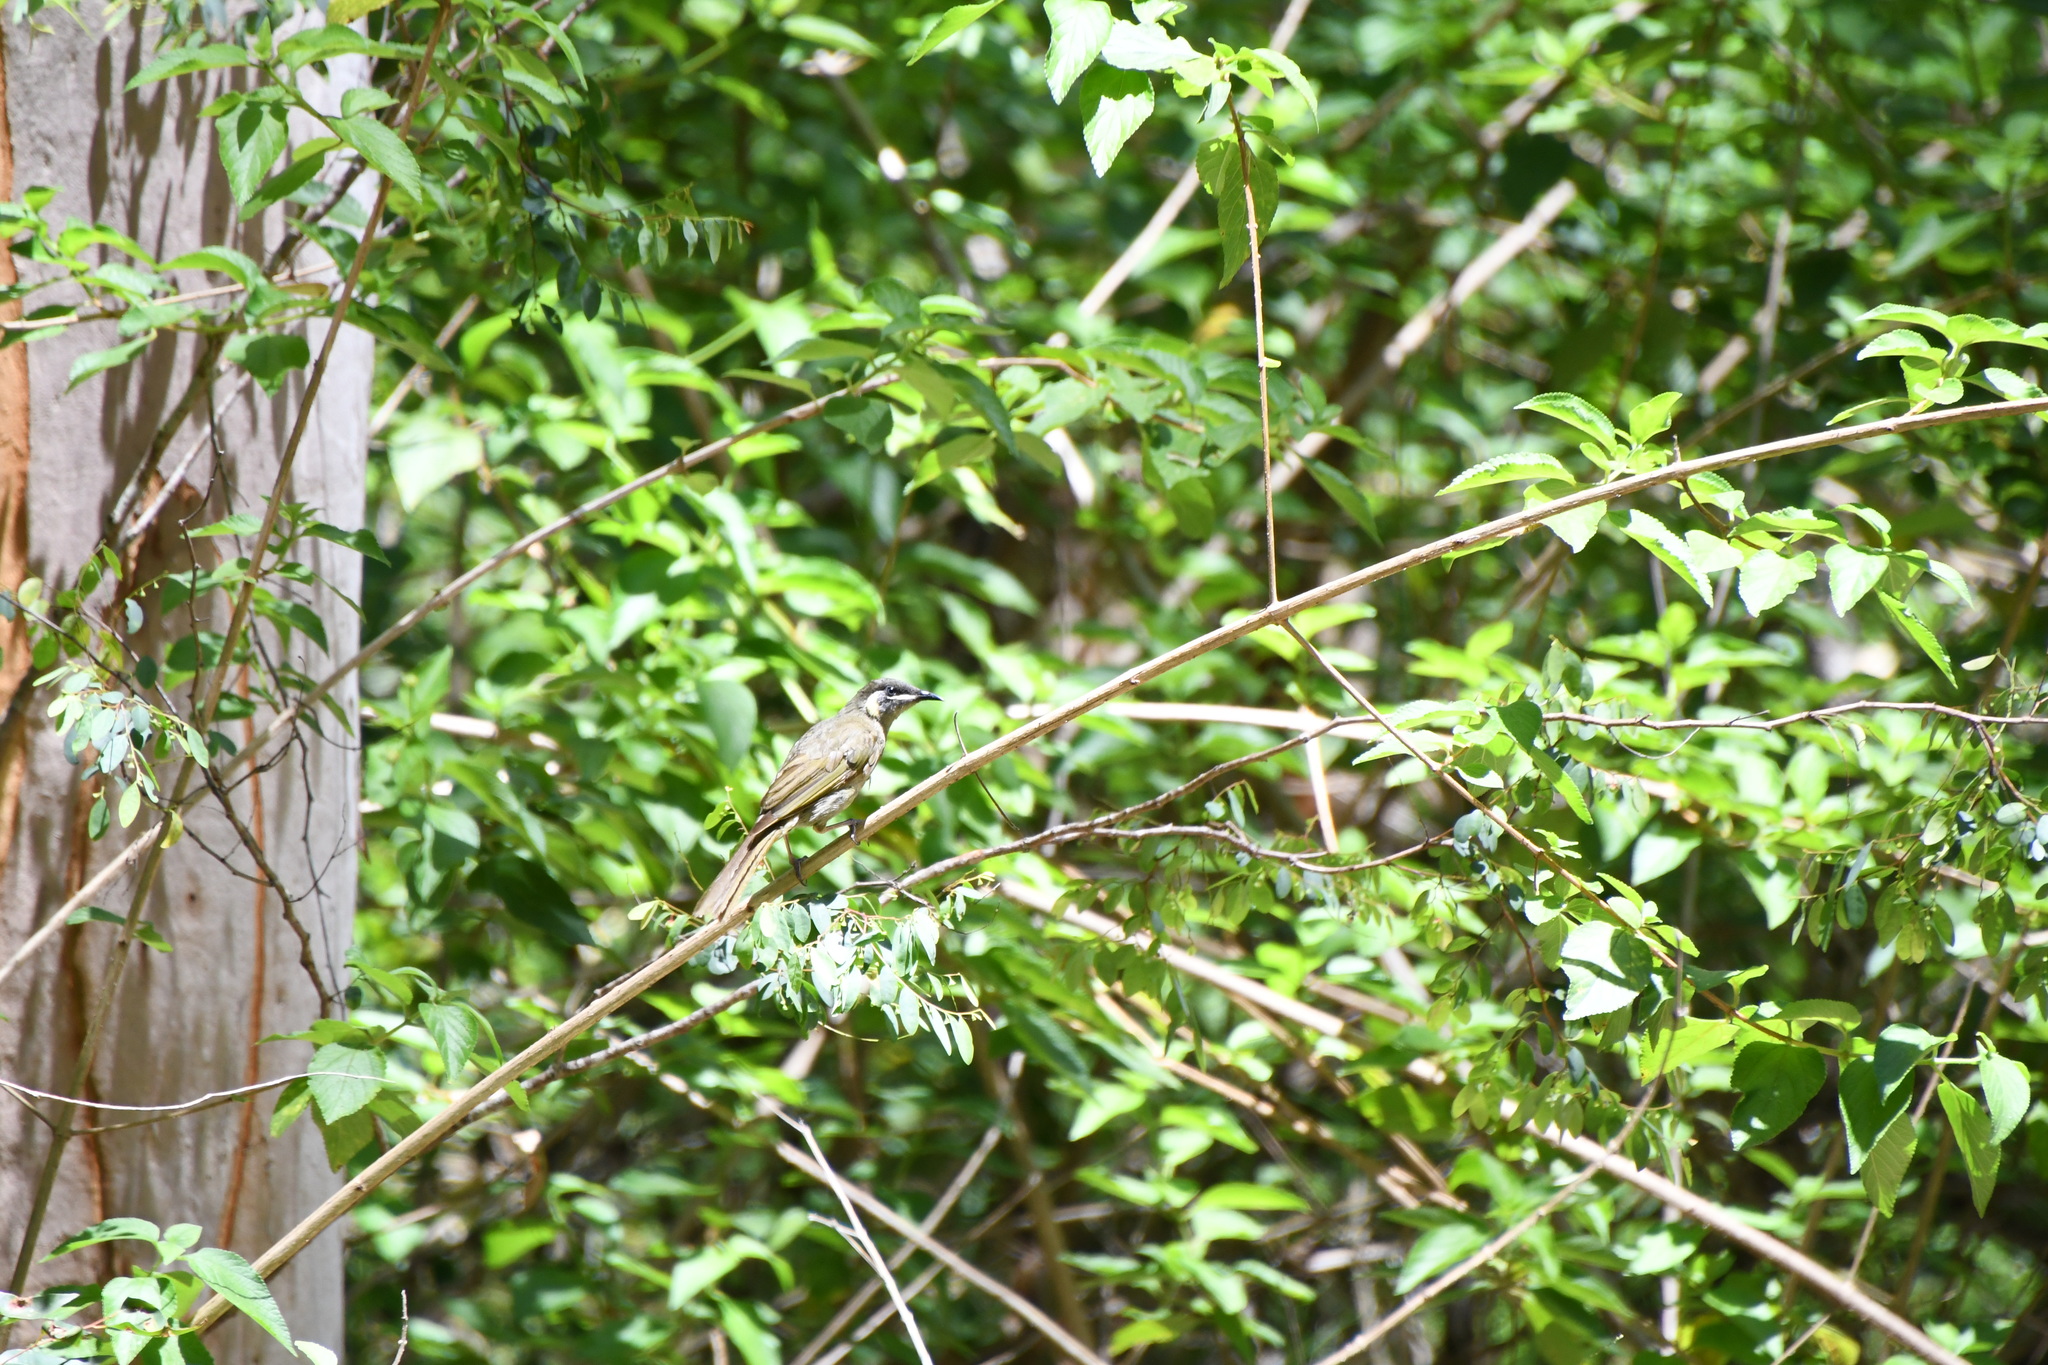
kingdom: Animalia
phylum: Chordata
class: Aves
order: Passeriformes
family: Meliphagidae
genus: Meliphaga
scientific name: Meliphaga lewinii
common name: Lewin's honeyeater
